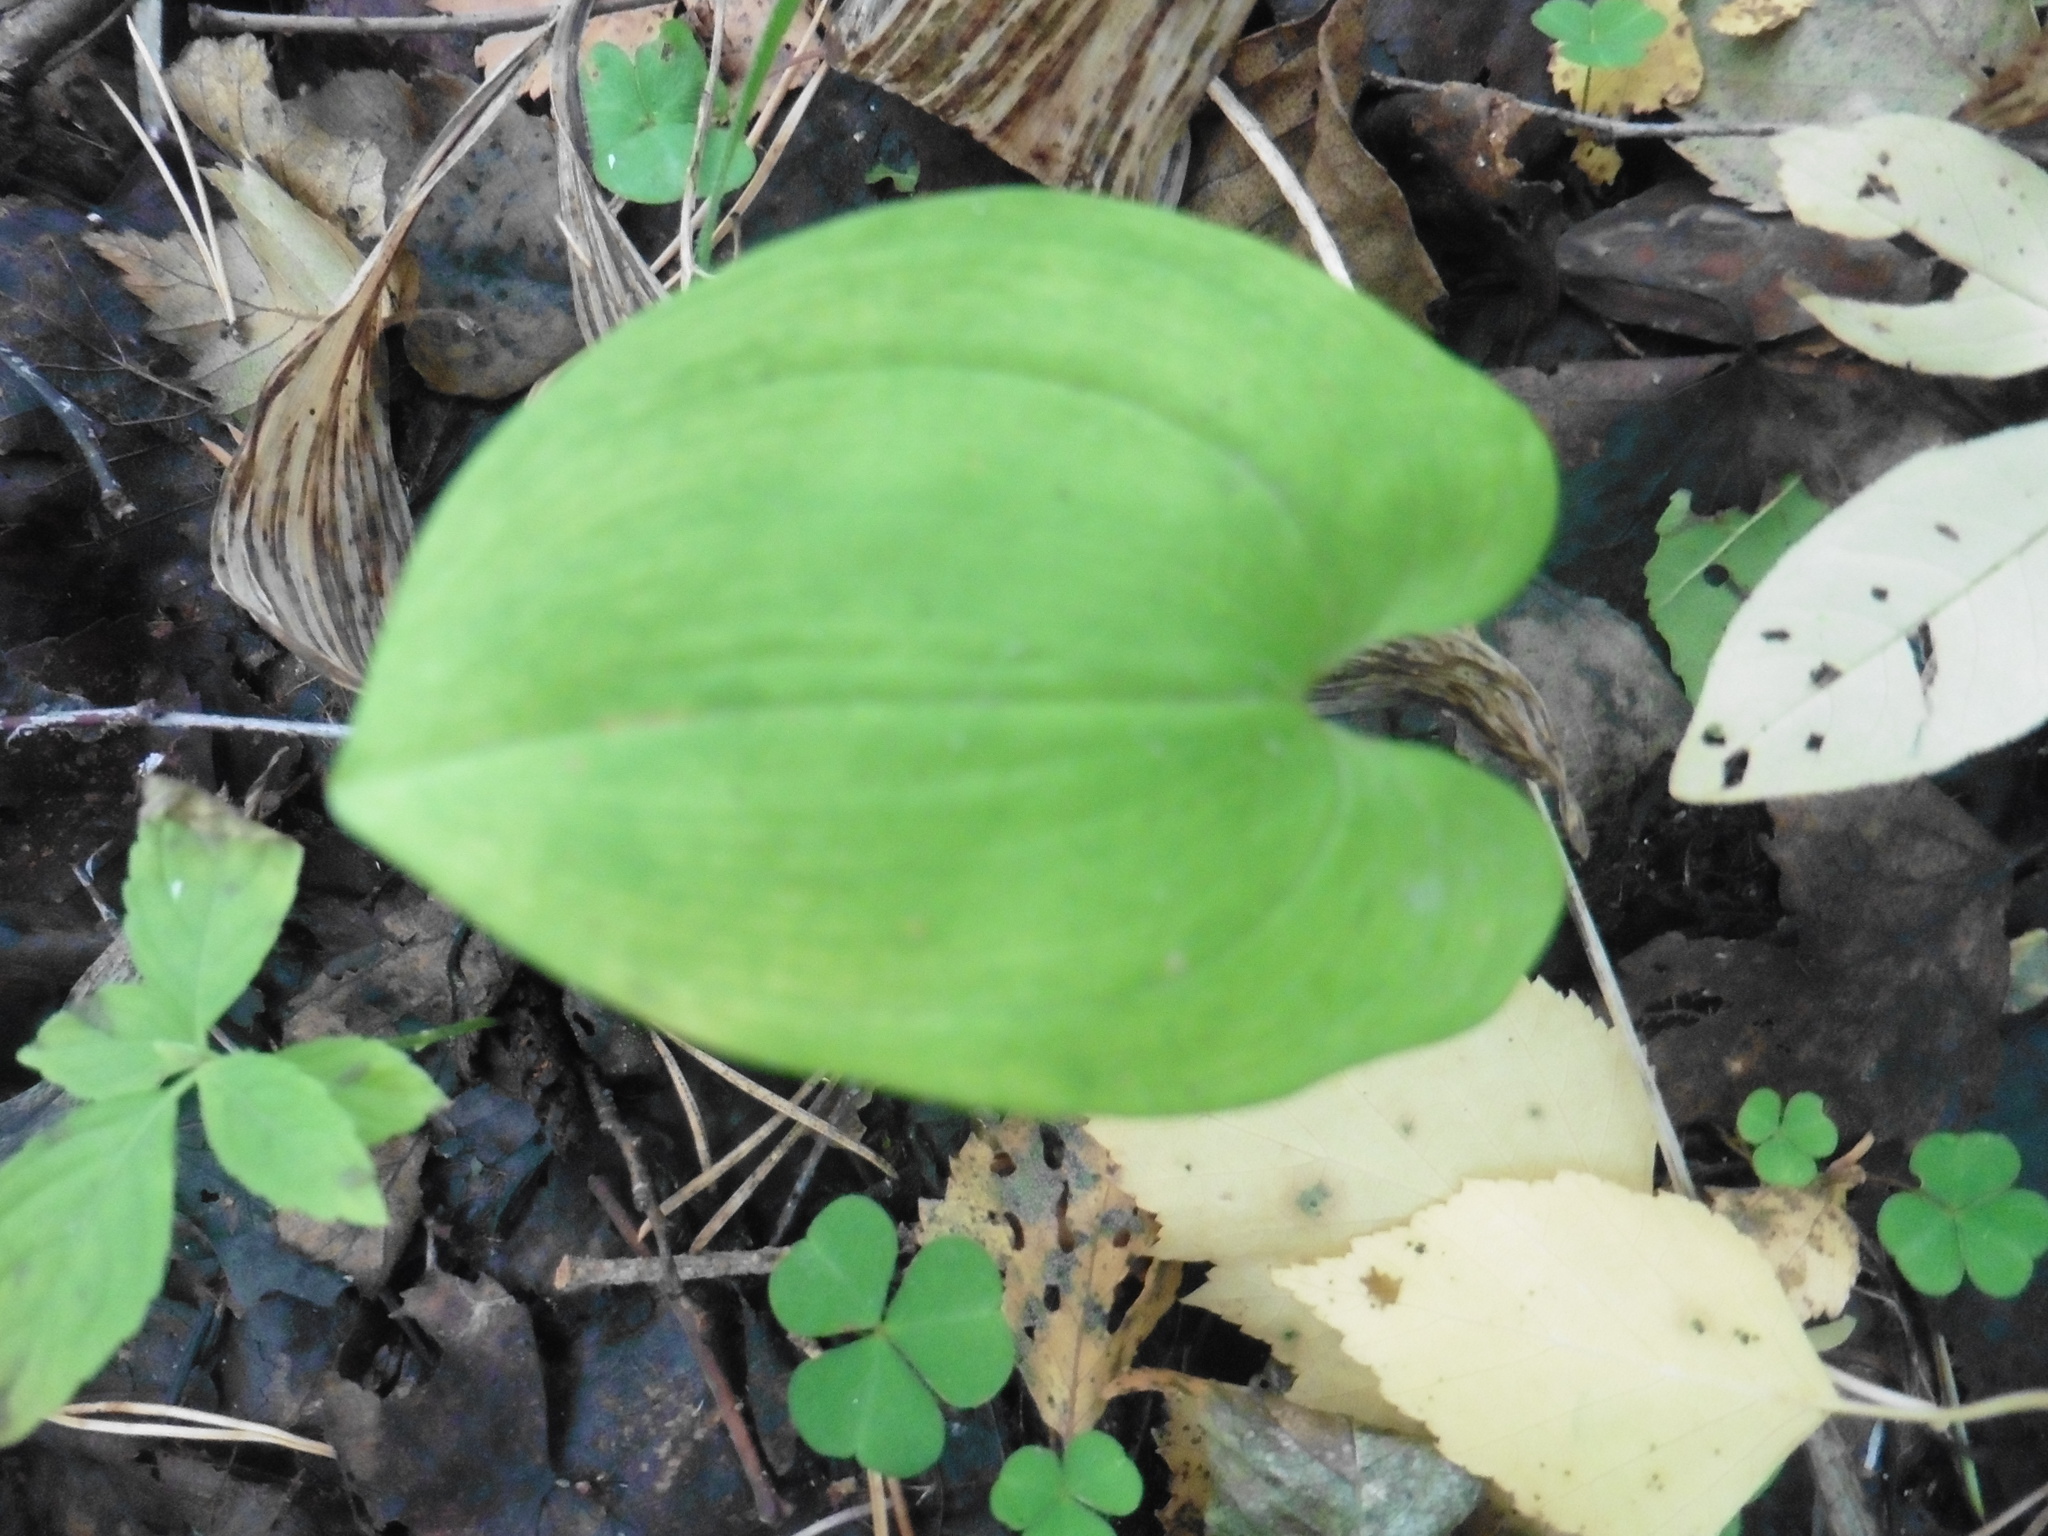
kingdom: Plantae
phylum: Tracheophyta
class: Liliopsida
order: Asparagales
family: Asparagaceae
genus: Maianthemum
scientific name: Maianthemum bifolium
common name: May lily
